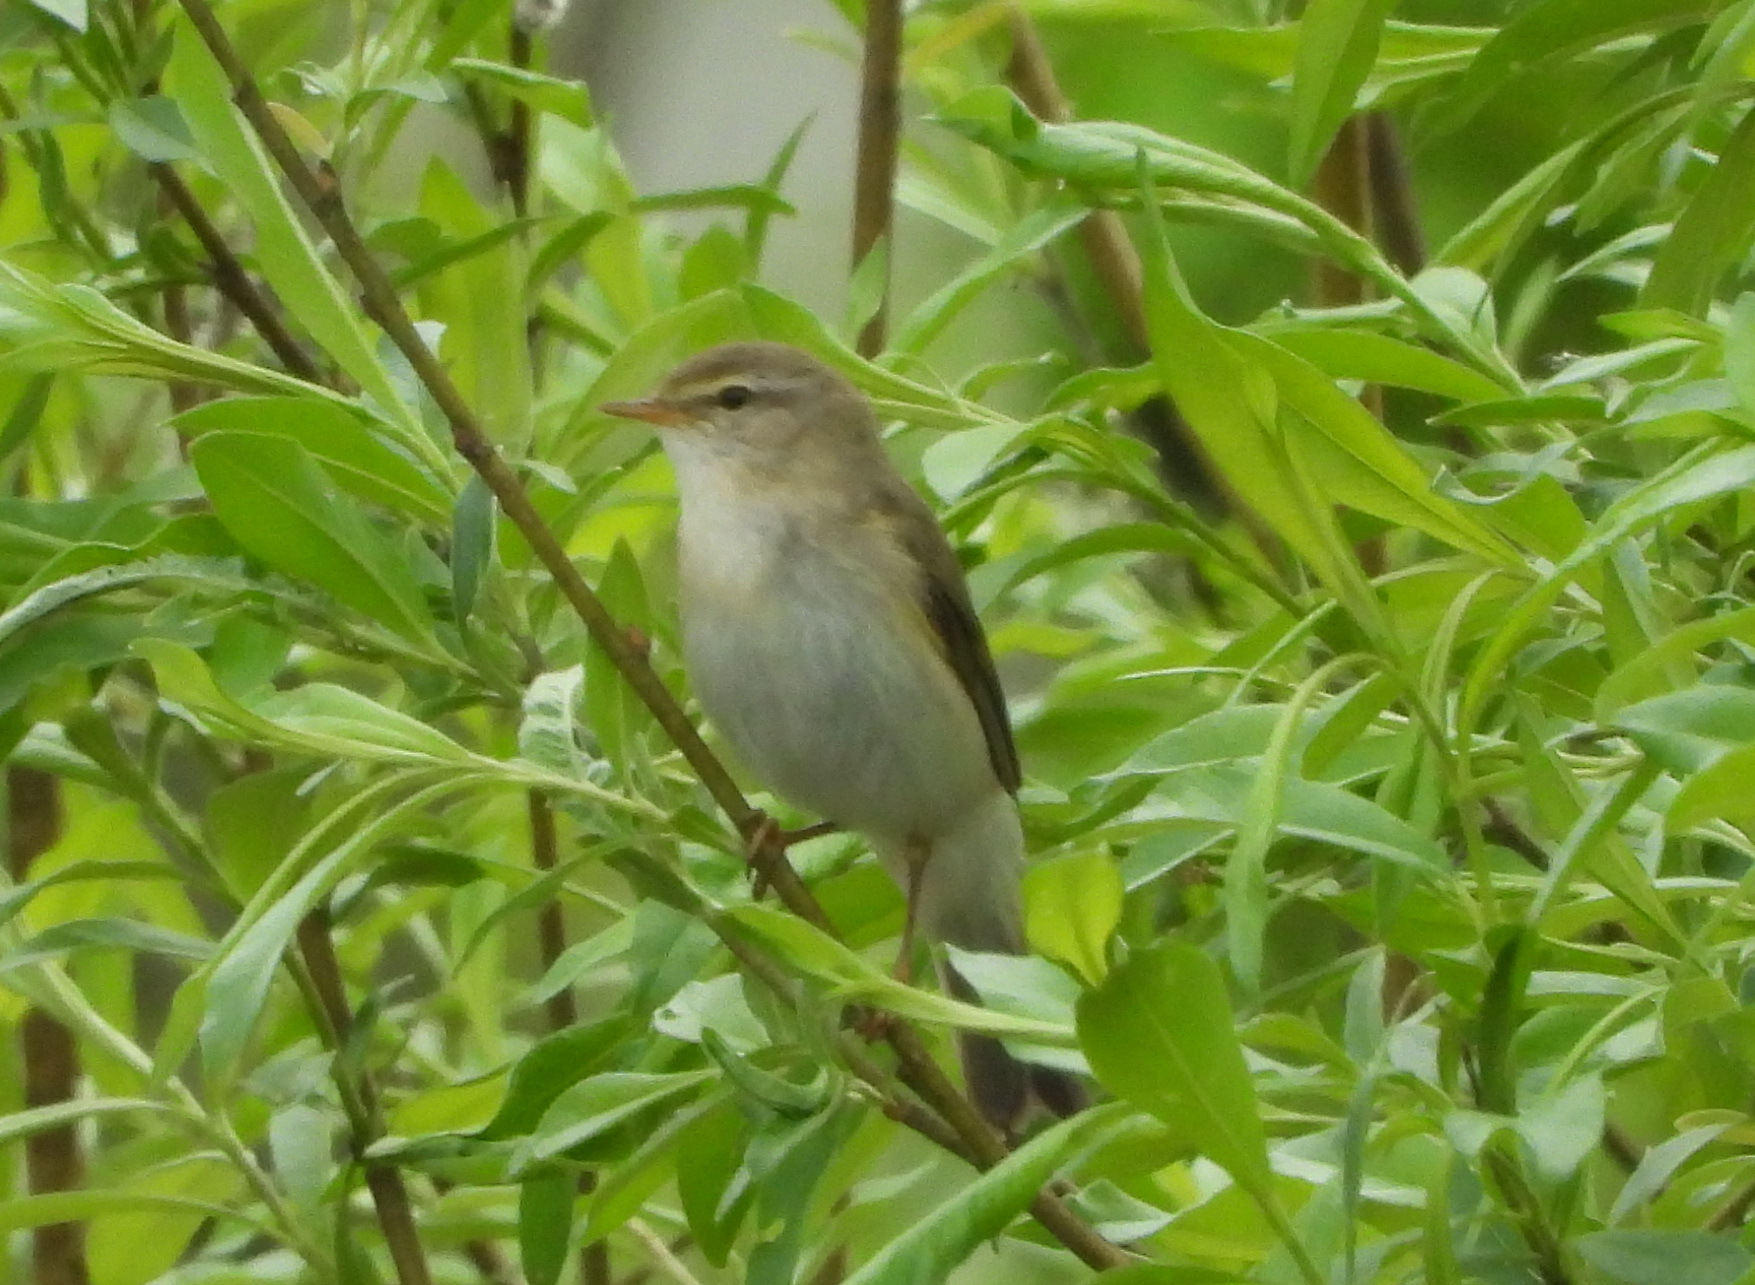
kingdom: Animalia
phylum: Chordata
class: Aves
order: Passeriformes
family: Phylloscopidae
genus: Phylloscopus
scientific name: Phylloscopus trochilus
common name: Willow warbler
